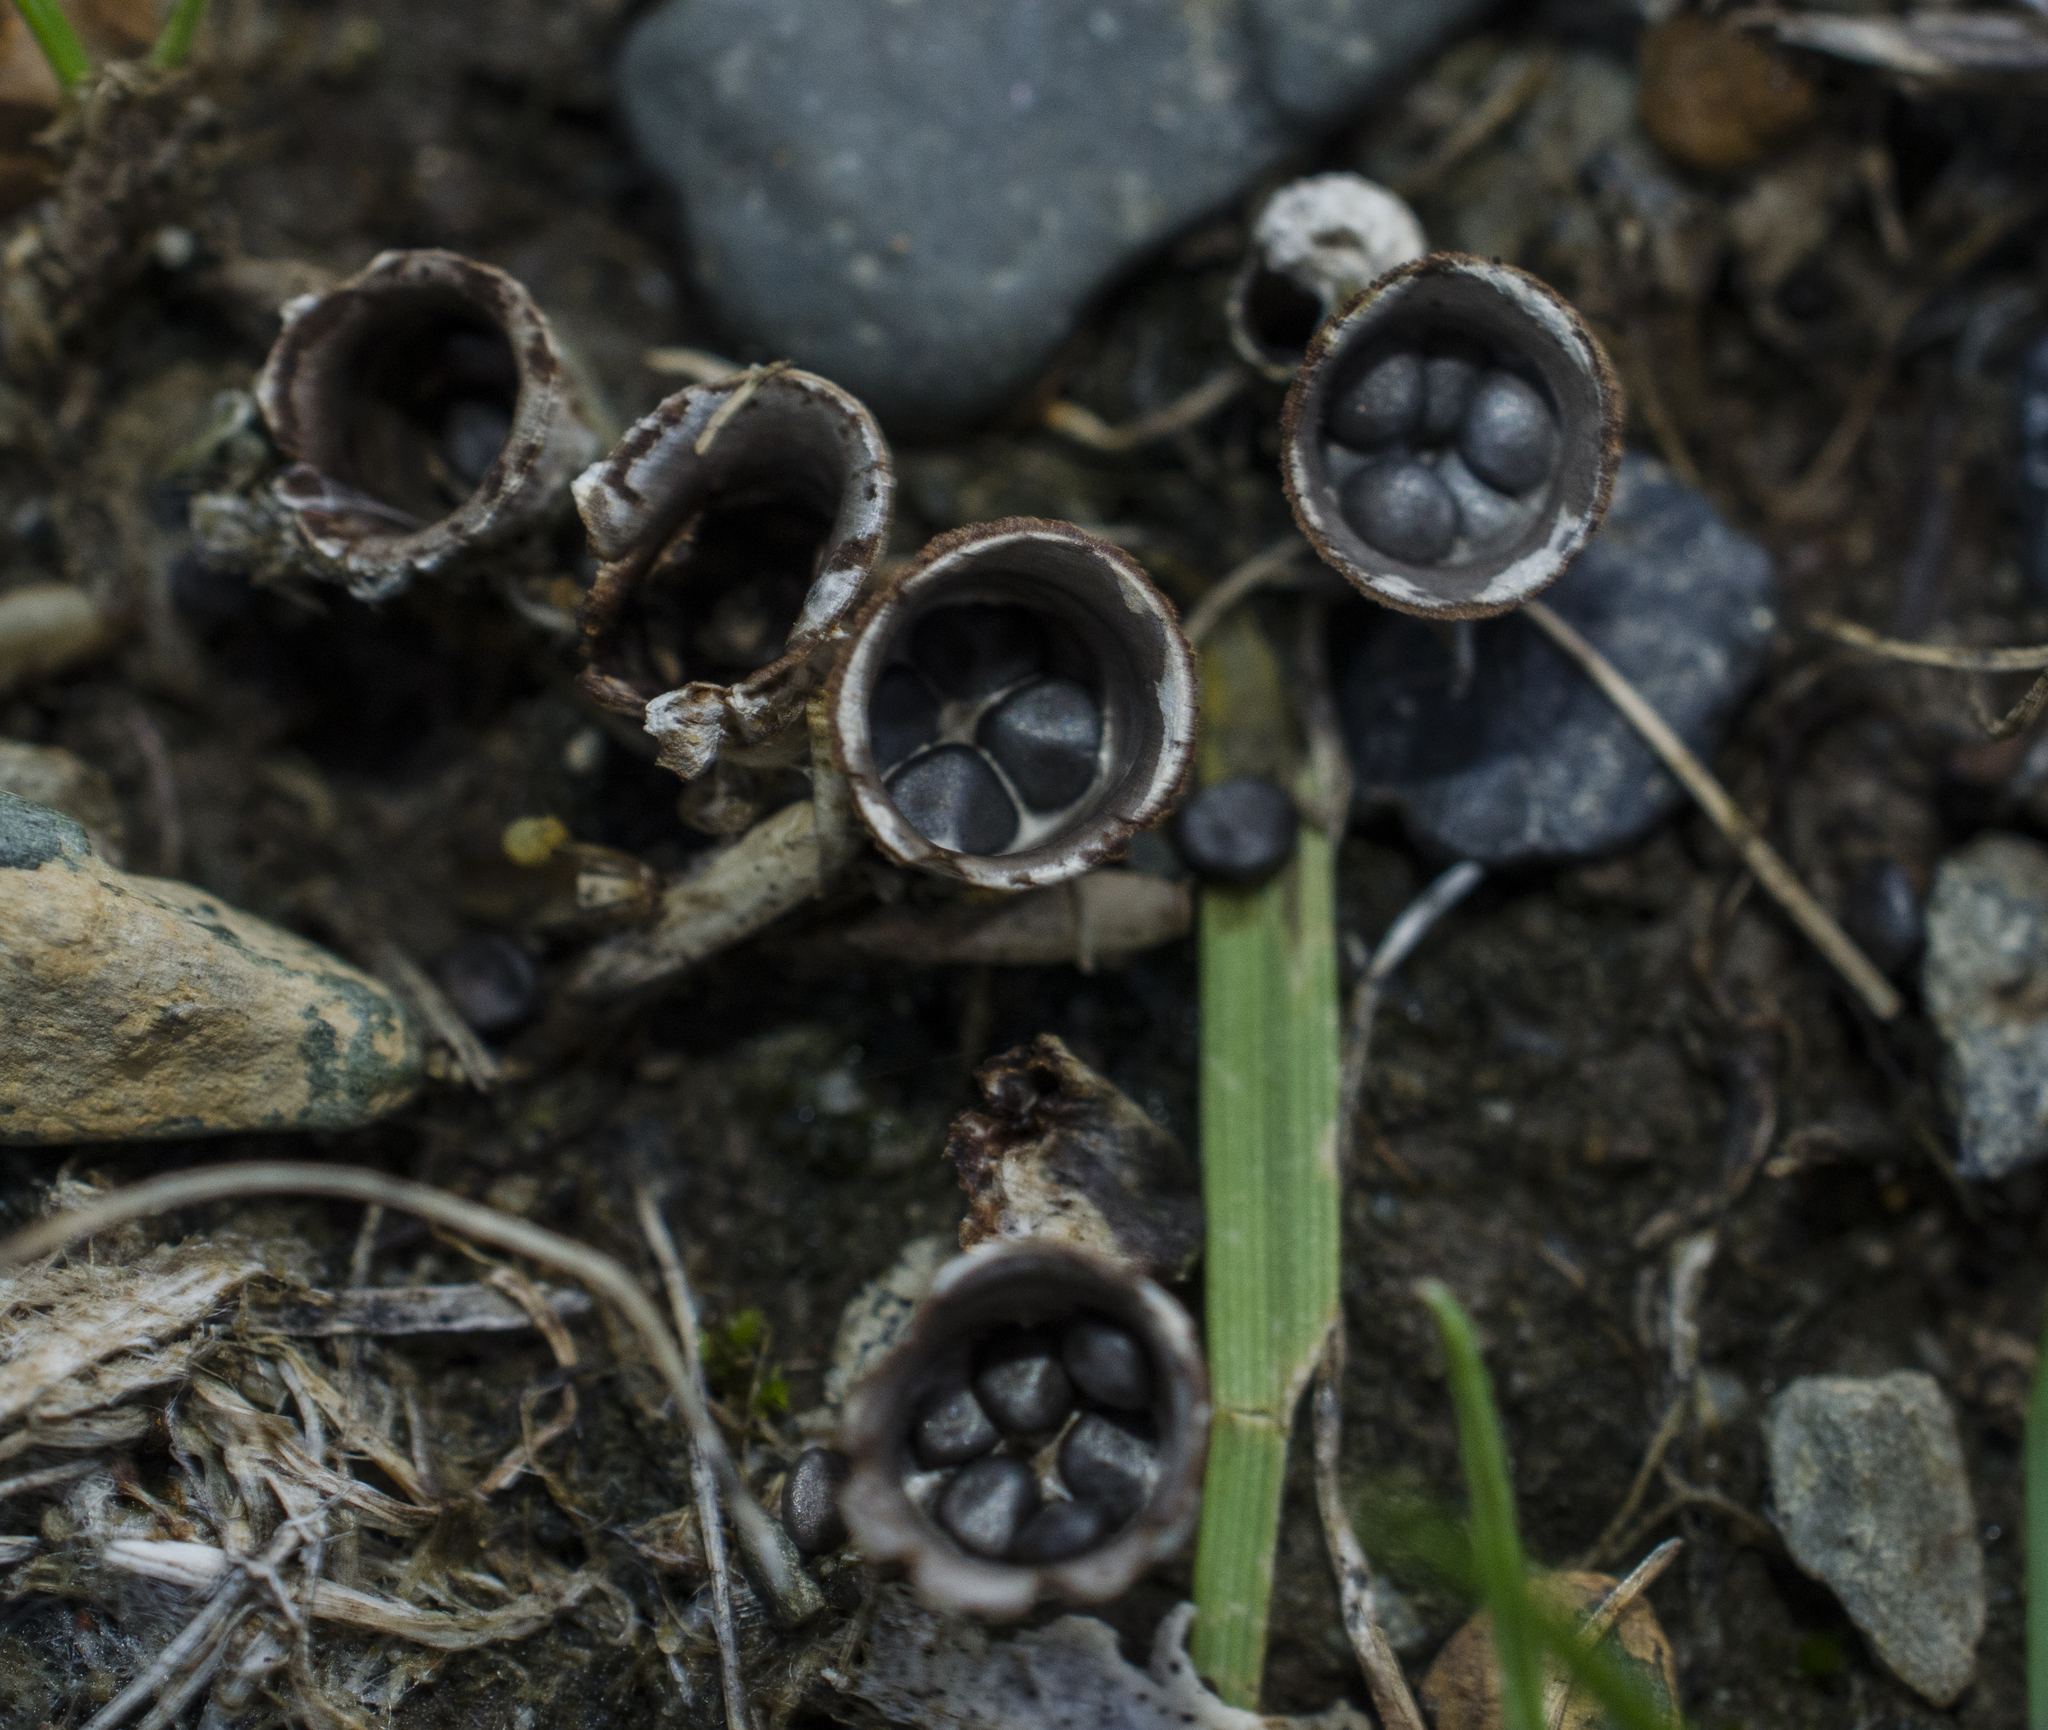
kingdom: Fungi
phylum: Basidiomycota
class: Agaricomycetes
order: Agaricales
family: Agaricaceae
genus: Cyathus
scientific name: Cyathus stercoreus
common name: Dung bird's nest
